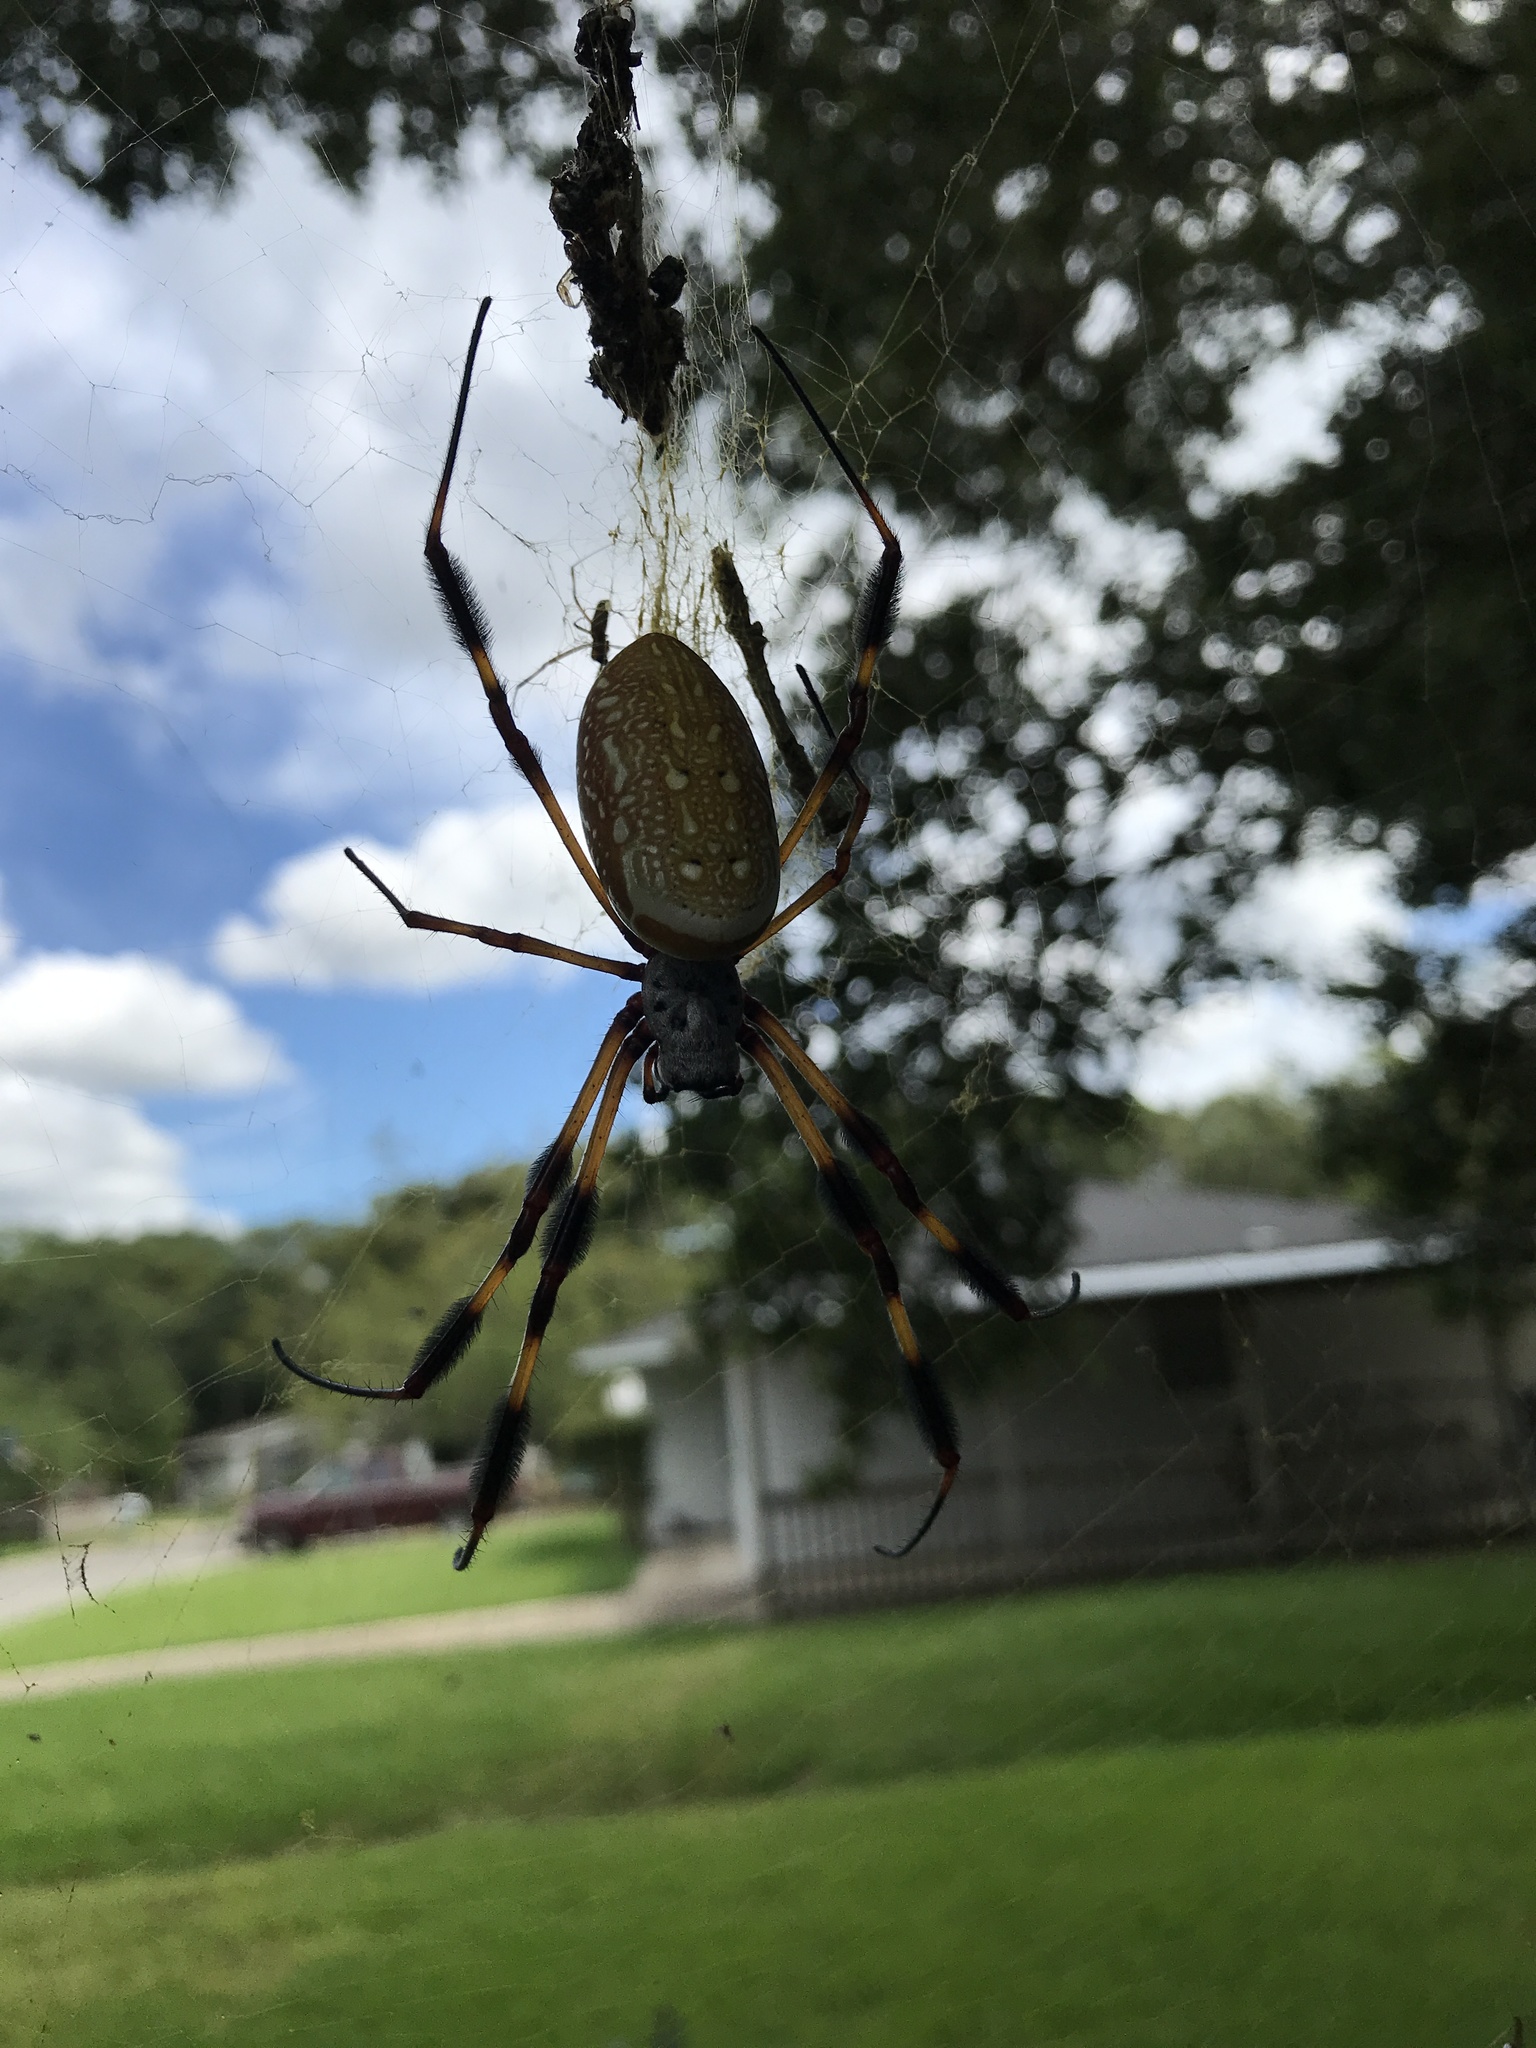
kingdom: Animalia
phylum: Arthropoda
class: Arachnida
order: Araneae
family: Araneidae
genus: Trichonephila
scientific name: Trichonephila clavipes
